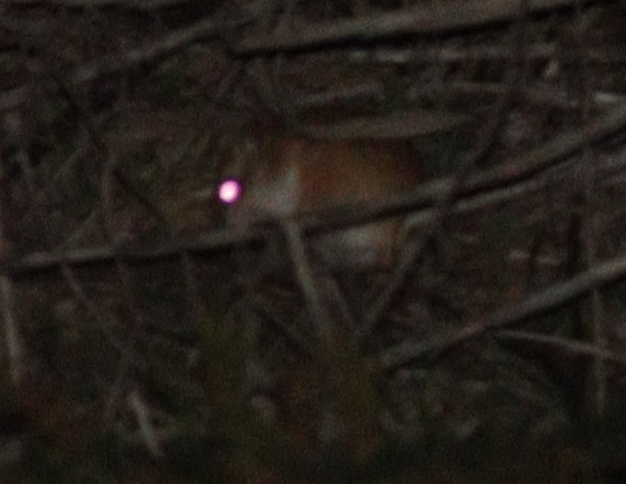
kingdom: Animalia
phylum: Chordata
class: Mammalia
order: Rodentia
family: Muridae
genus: Gerbillus
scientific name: Gerbillus andersoni
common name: Anderson's gerbil
